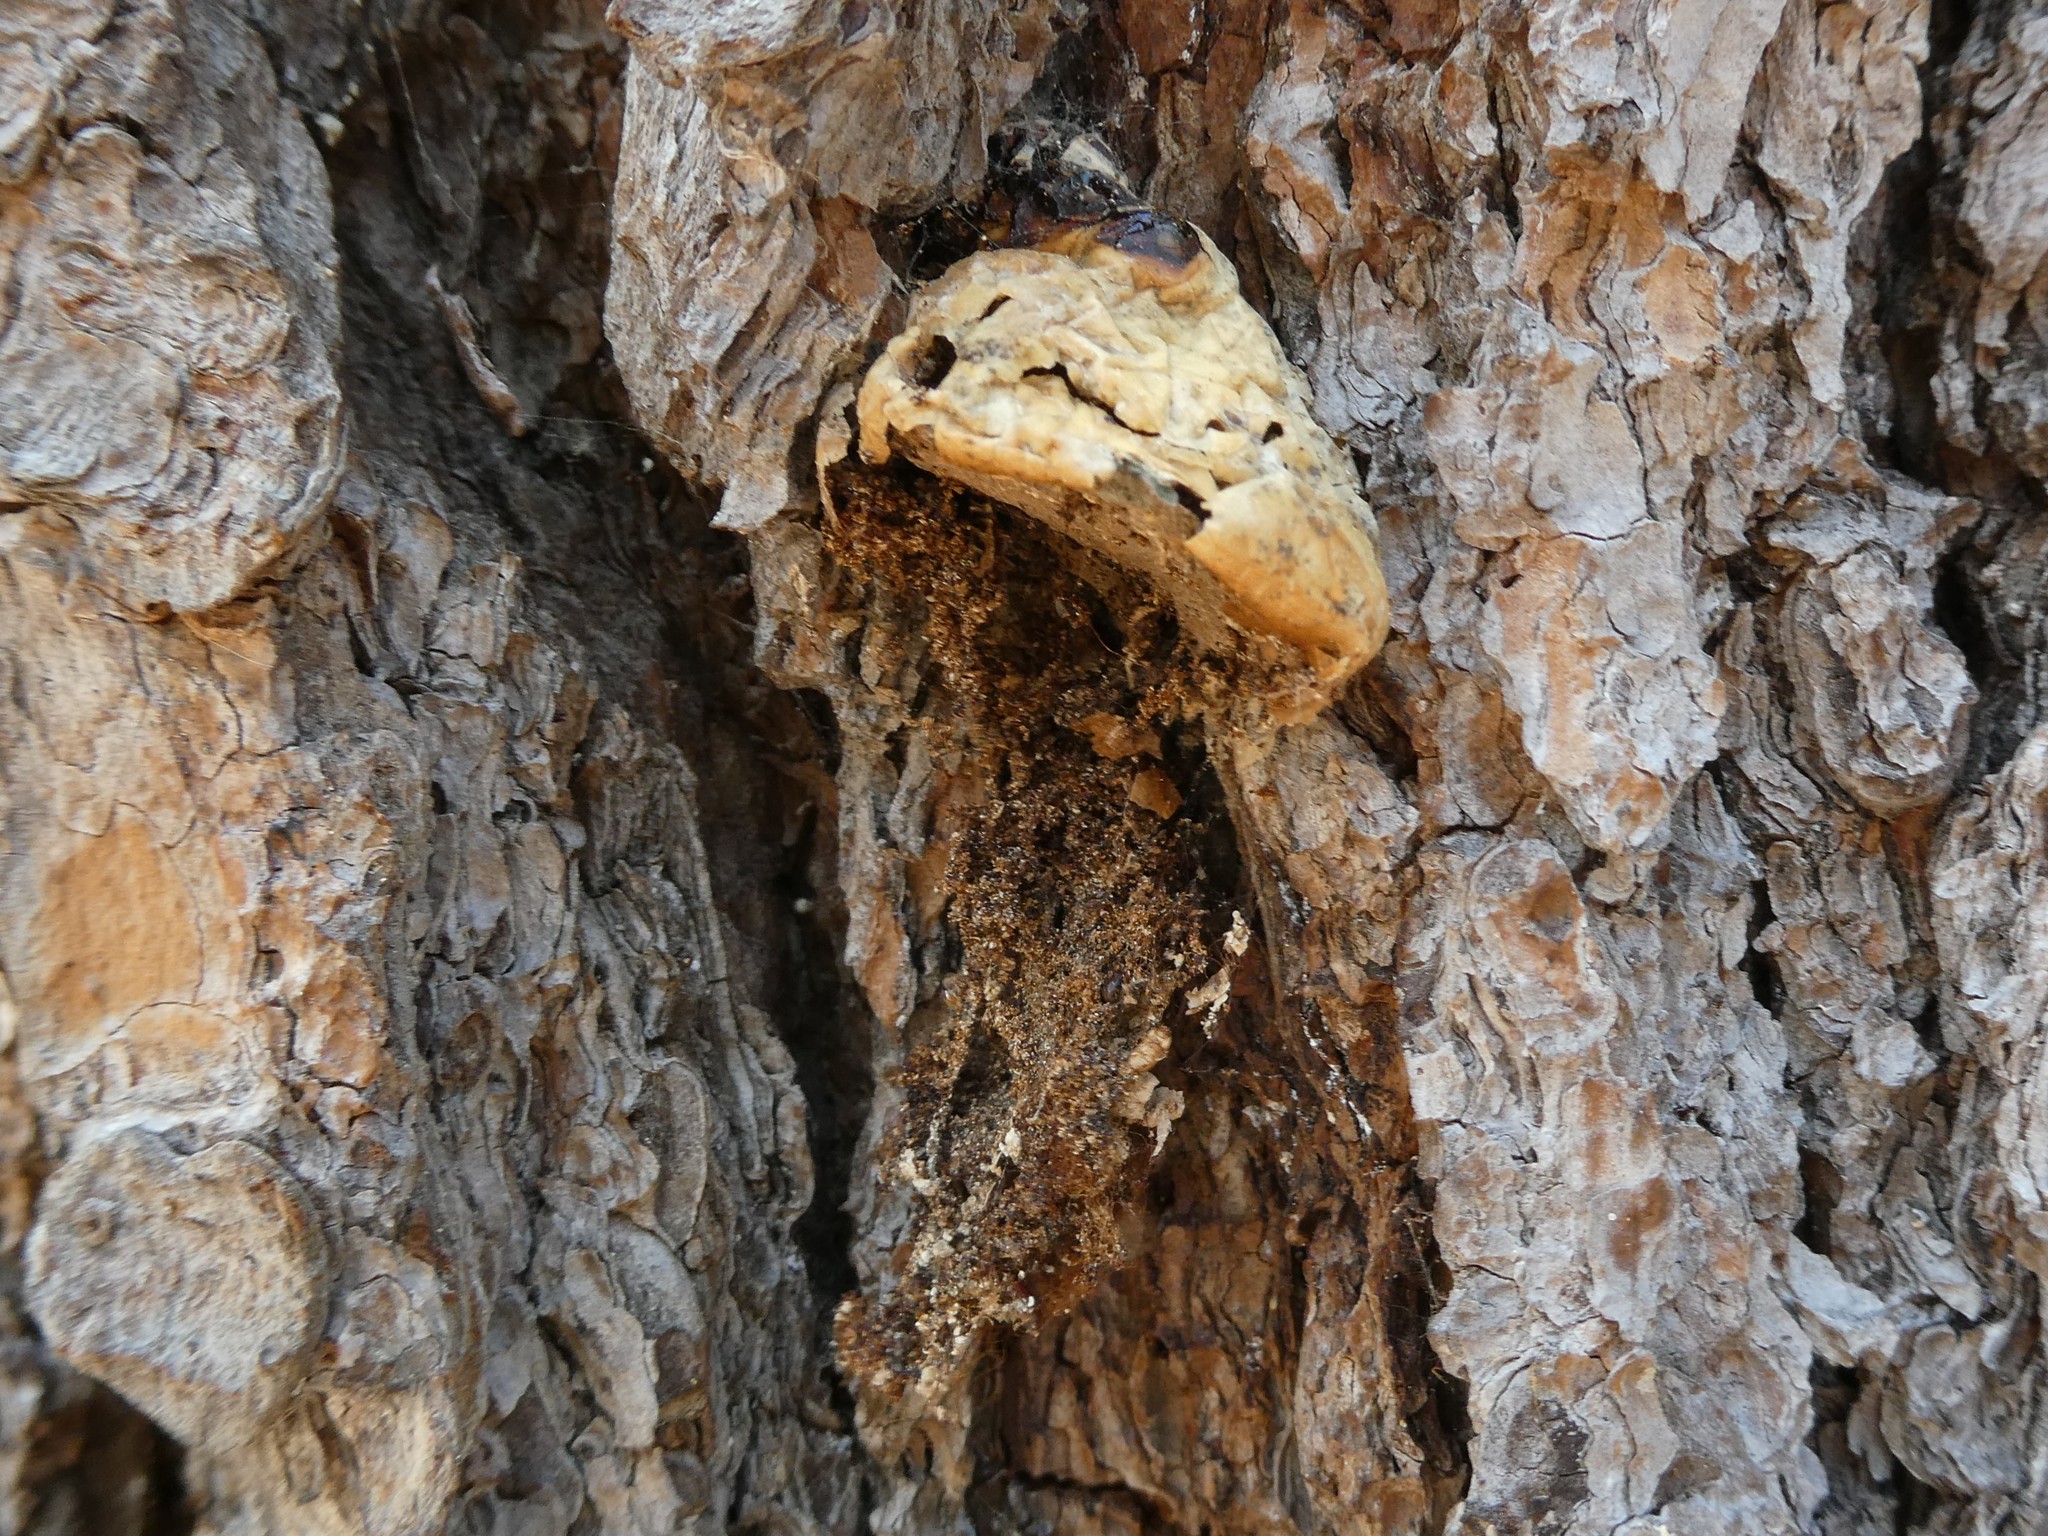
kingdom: Fungi
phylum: Basidiomycota
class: Agaricomycetes
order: Polyporales
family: Polyporaceae
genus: Cryptoporus
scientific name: Cryptoporus volvatus
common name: Veiled polypore
